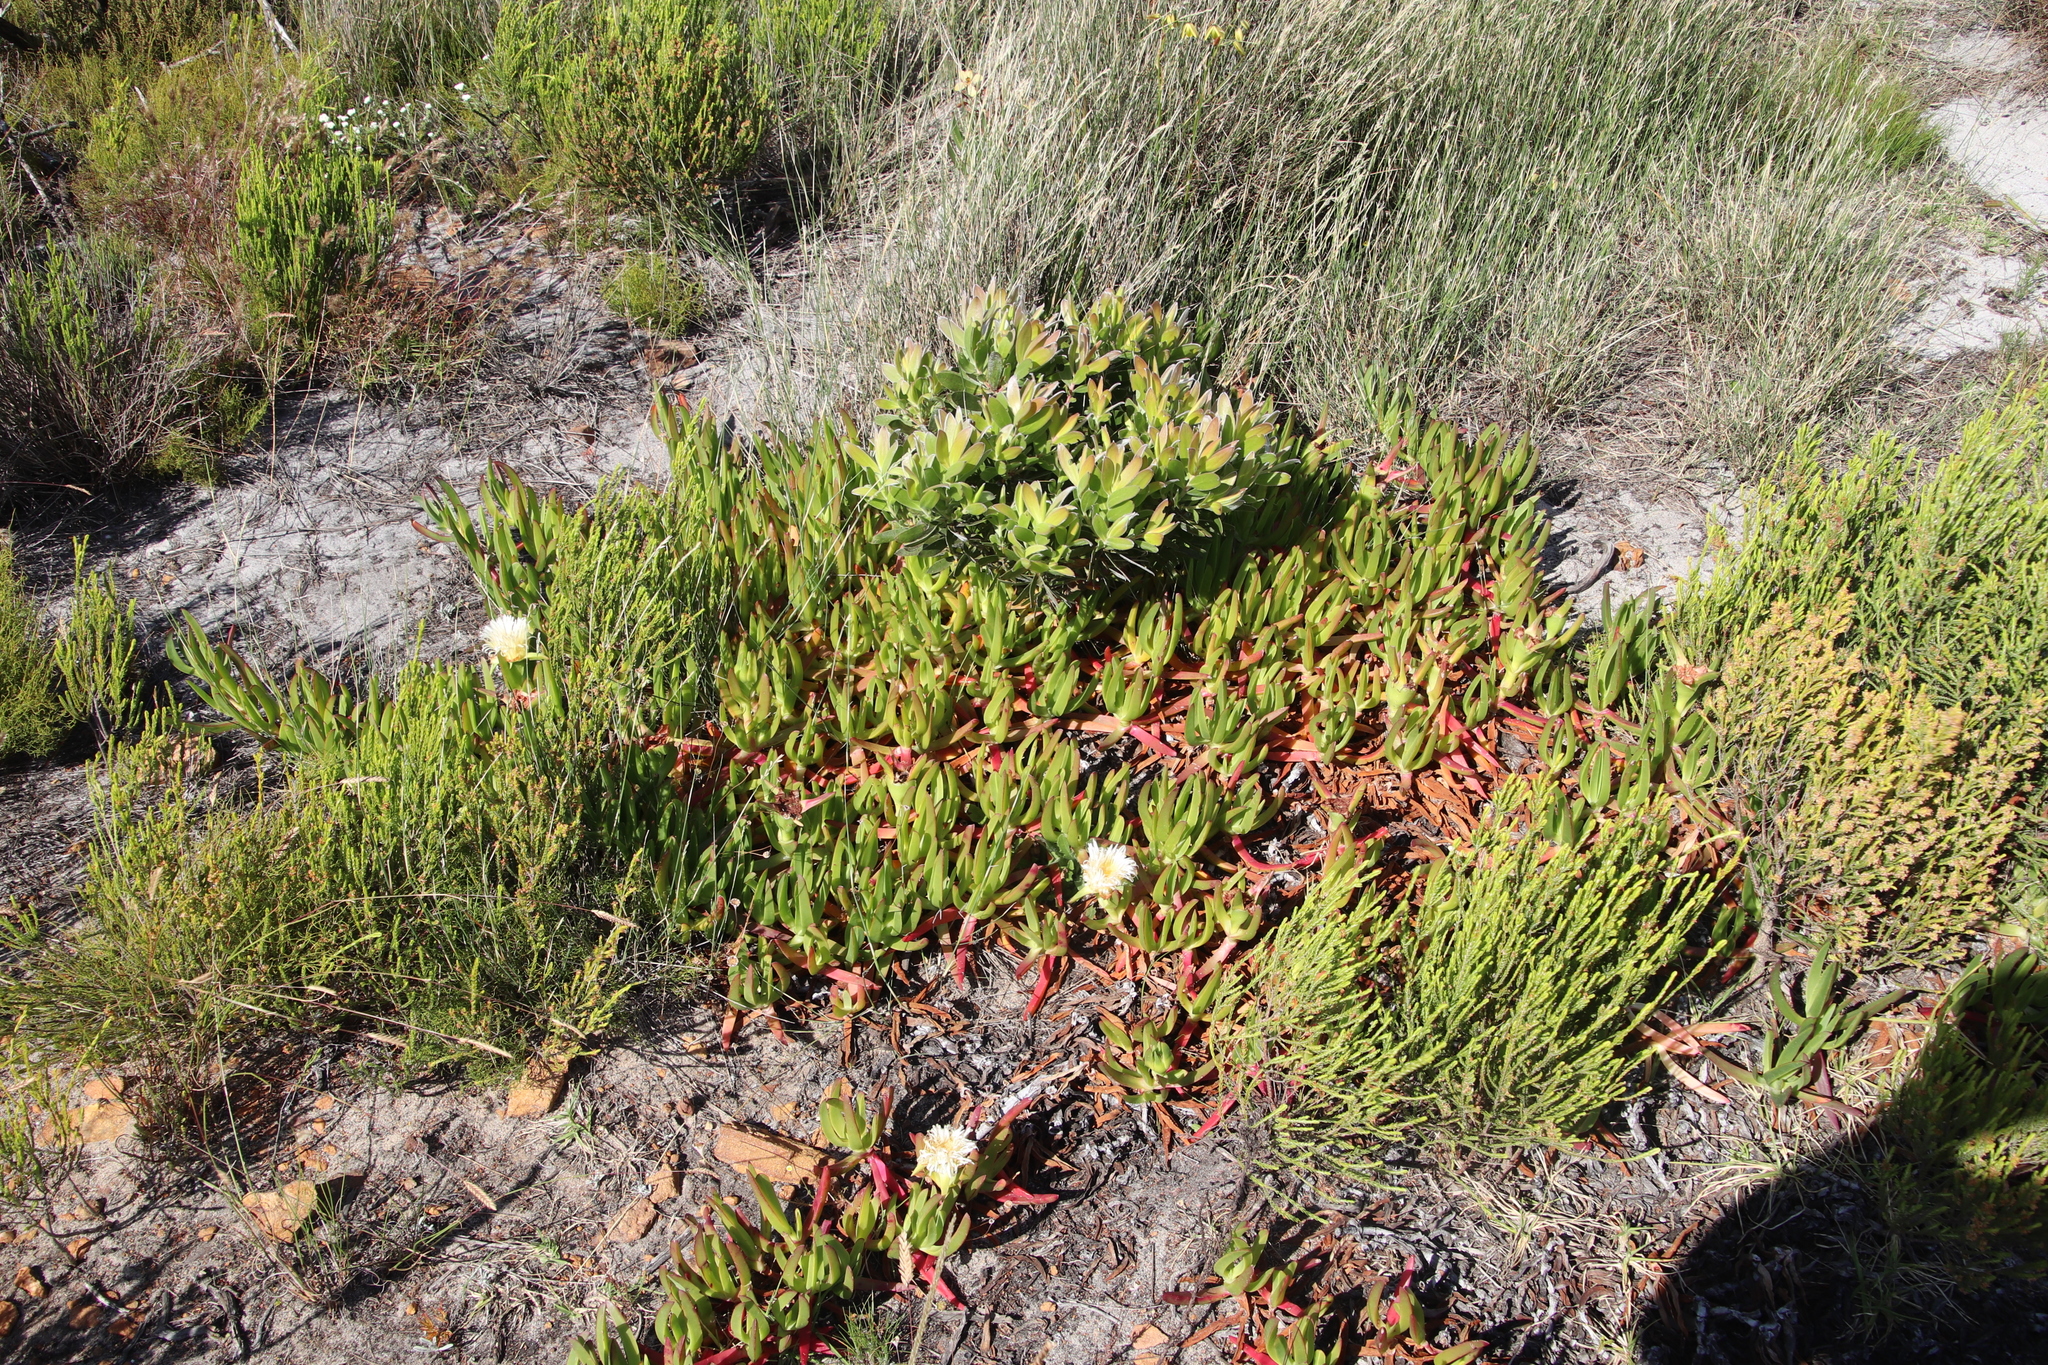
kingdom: Plantae
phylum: Tracheophyta
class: Magnoliopsida
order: Caryophyllales
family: Aizoaceae
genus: Carpobrotus
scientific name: Carpobrotus edulis
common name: Hottentot-fig
